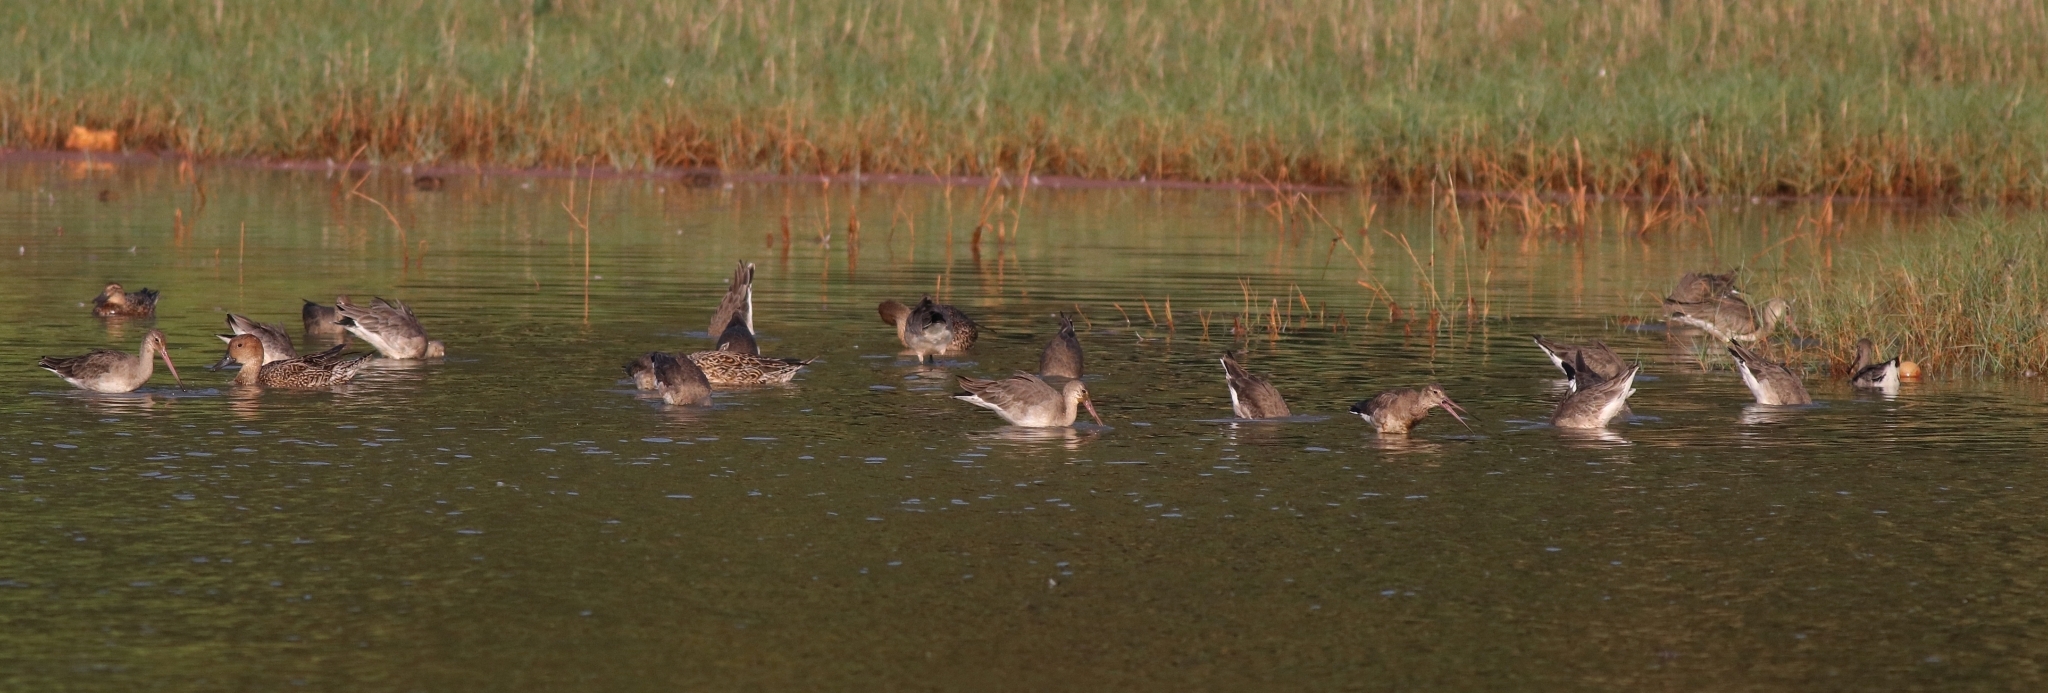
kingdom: Animalia
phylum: Chordata
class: Aves
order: Charadriiformes
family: Scolopacidae
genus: Limosa
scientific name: Limosa limosa
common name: Black-tailed godwit
